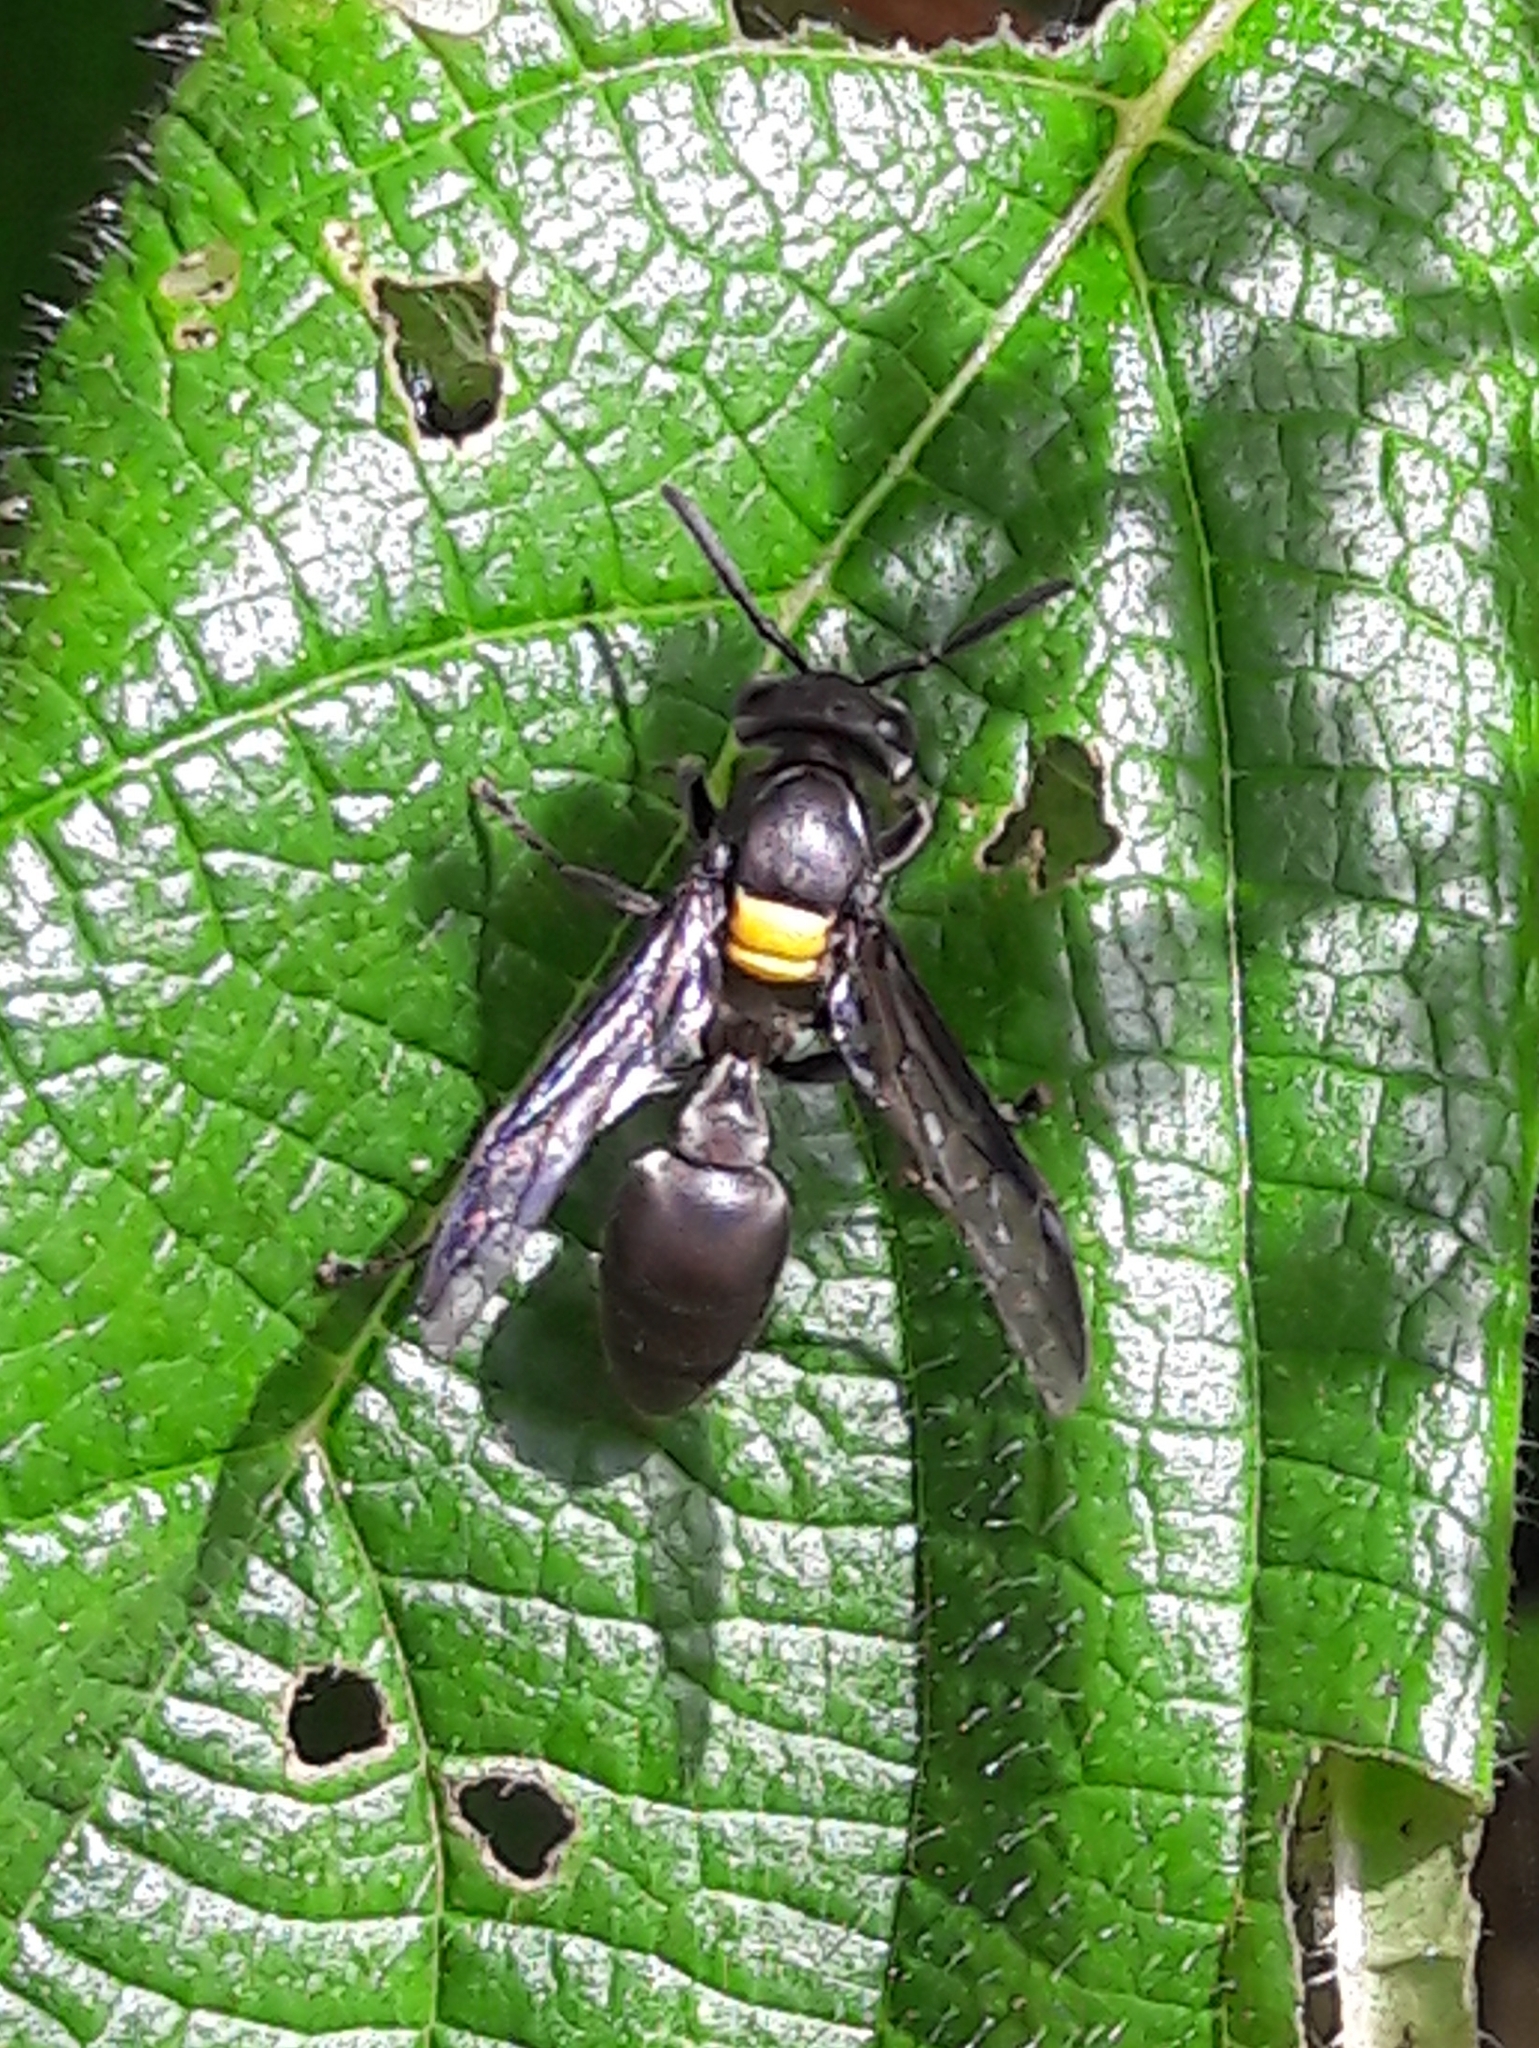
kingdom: Animalia
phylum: Arthropoda
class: Insecta
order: Hymenoptera
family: Eumenidae
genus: Polybia
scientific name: Polybia jurinei
